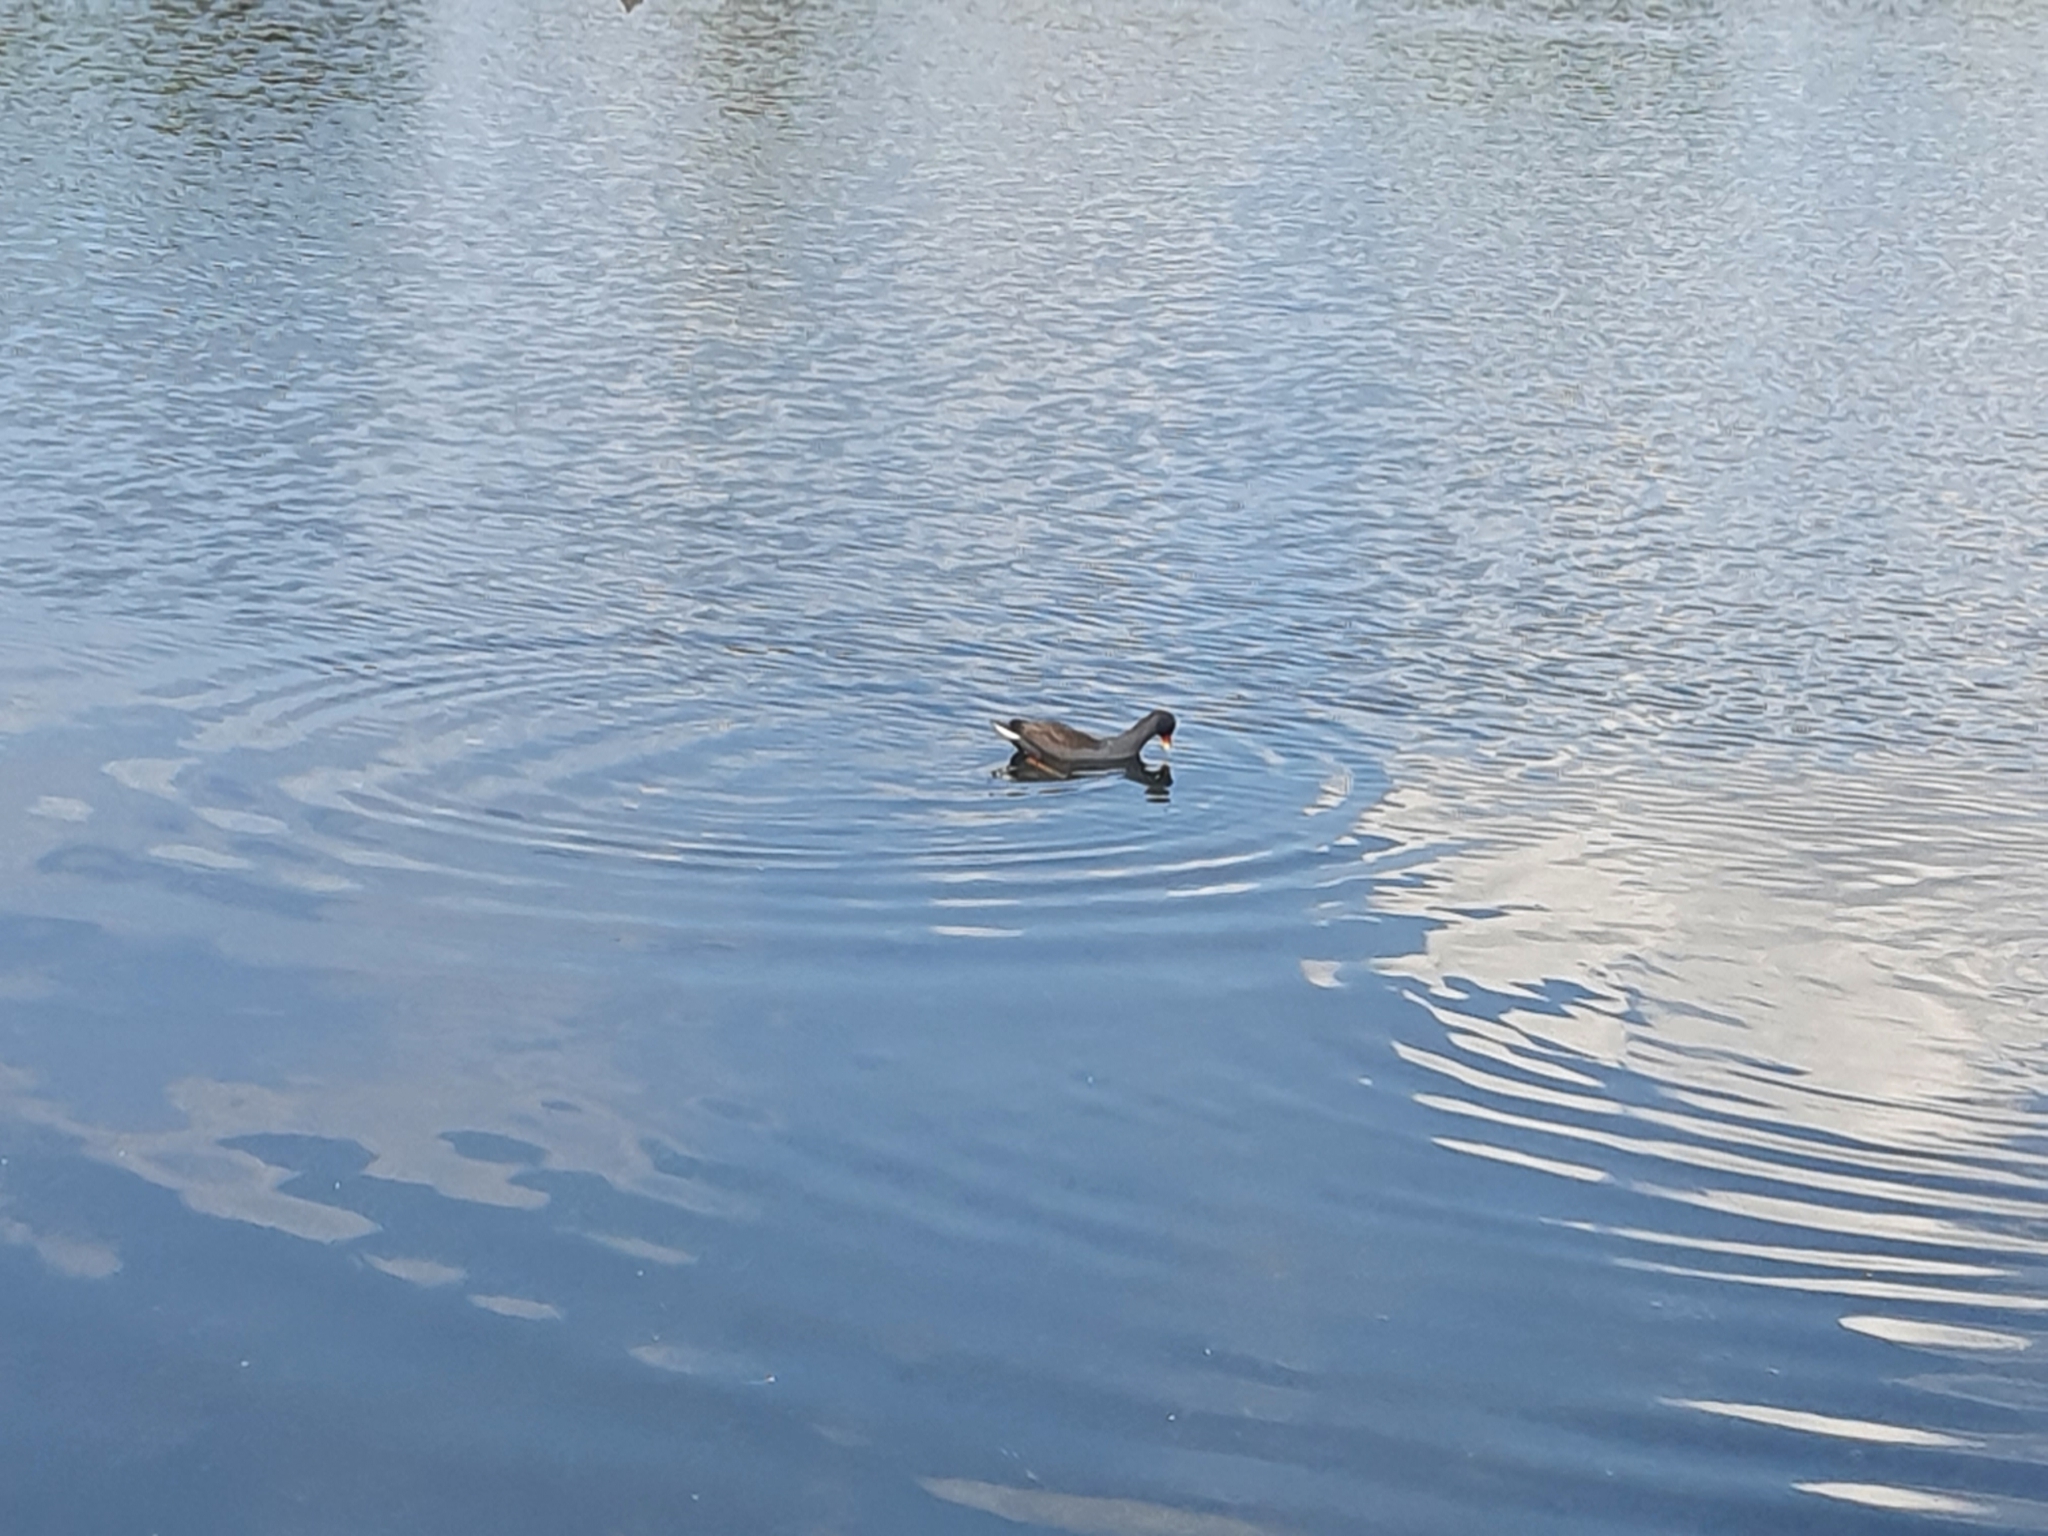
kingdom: Animalia
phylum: Chordata
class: Aves
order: Gruiformes
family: Rallidae
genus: Gallinula
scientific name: Gallinula tenebrosa
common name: Dusky moorhen
